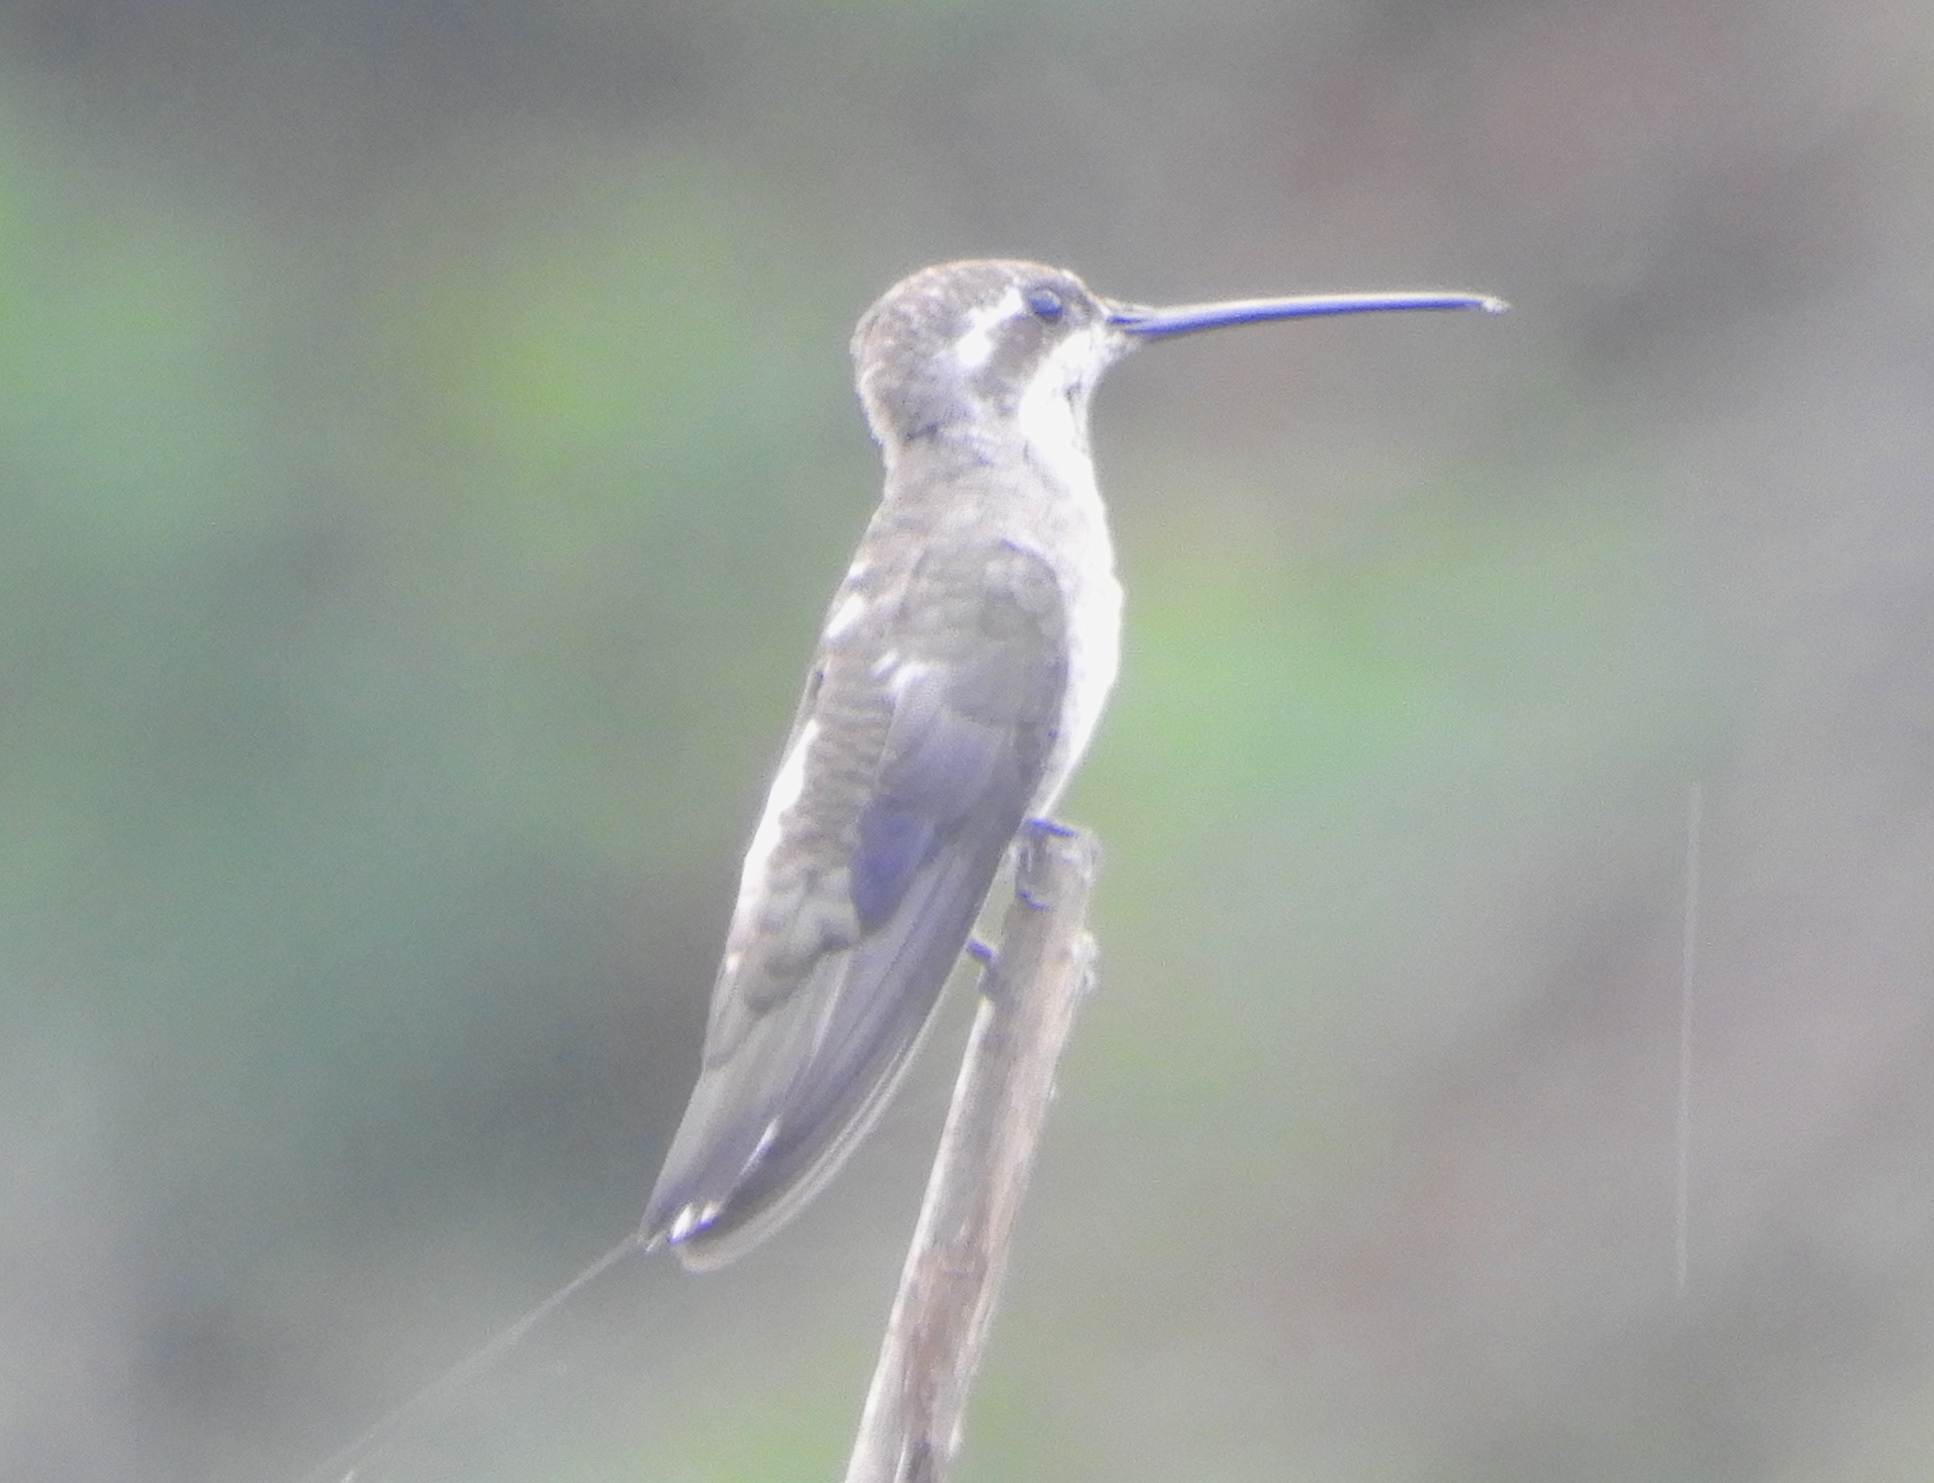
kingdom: Animalia
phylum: Chordata
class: Aves
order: Apodiformes
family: Trochilidae
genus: Heliomaster
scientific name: Heliomaster constantii
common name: Plain-capped starthroat
